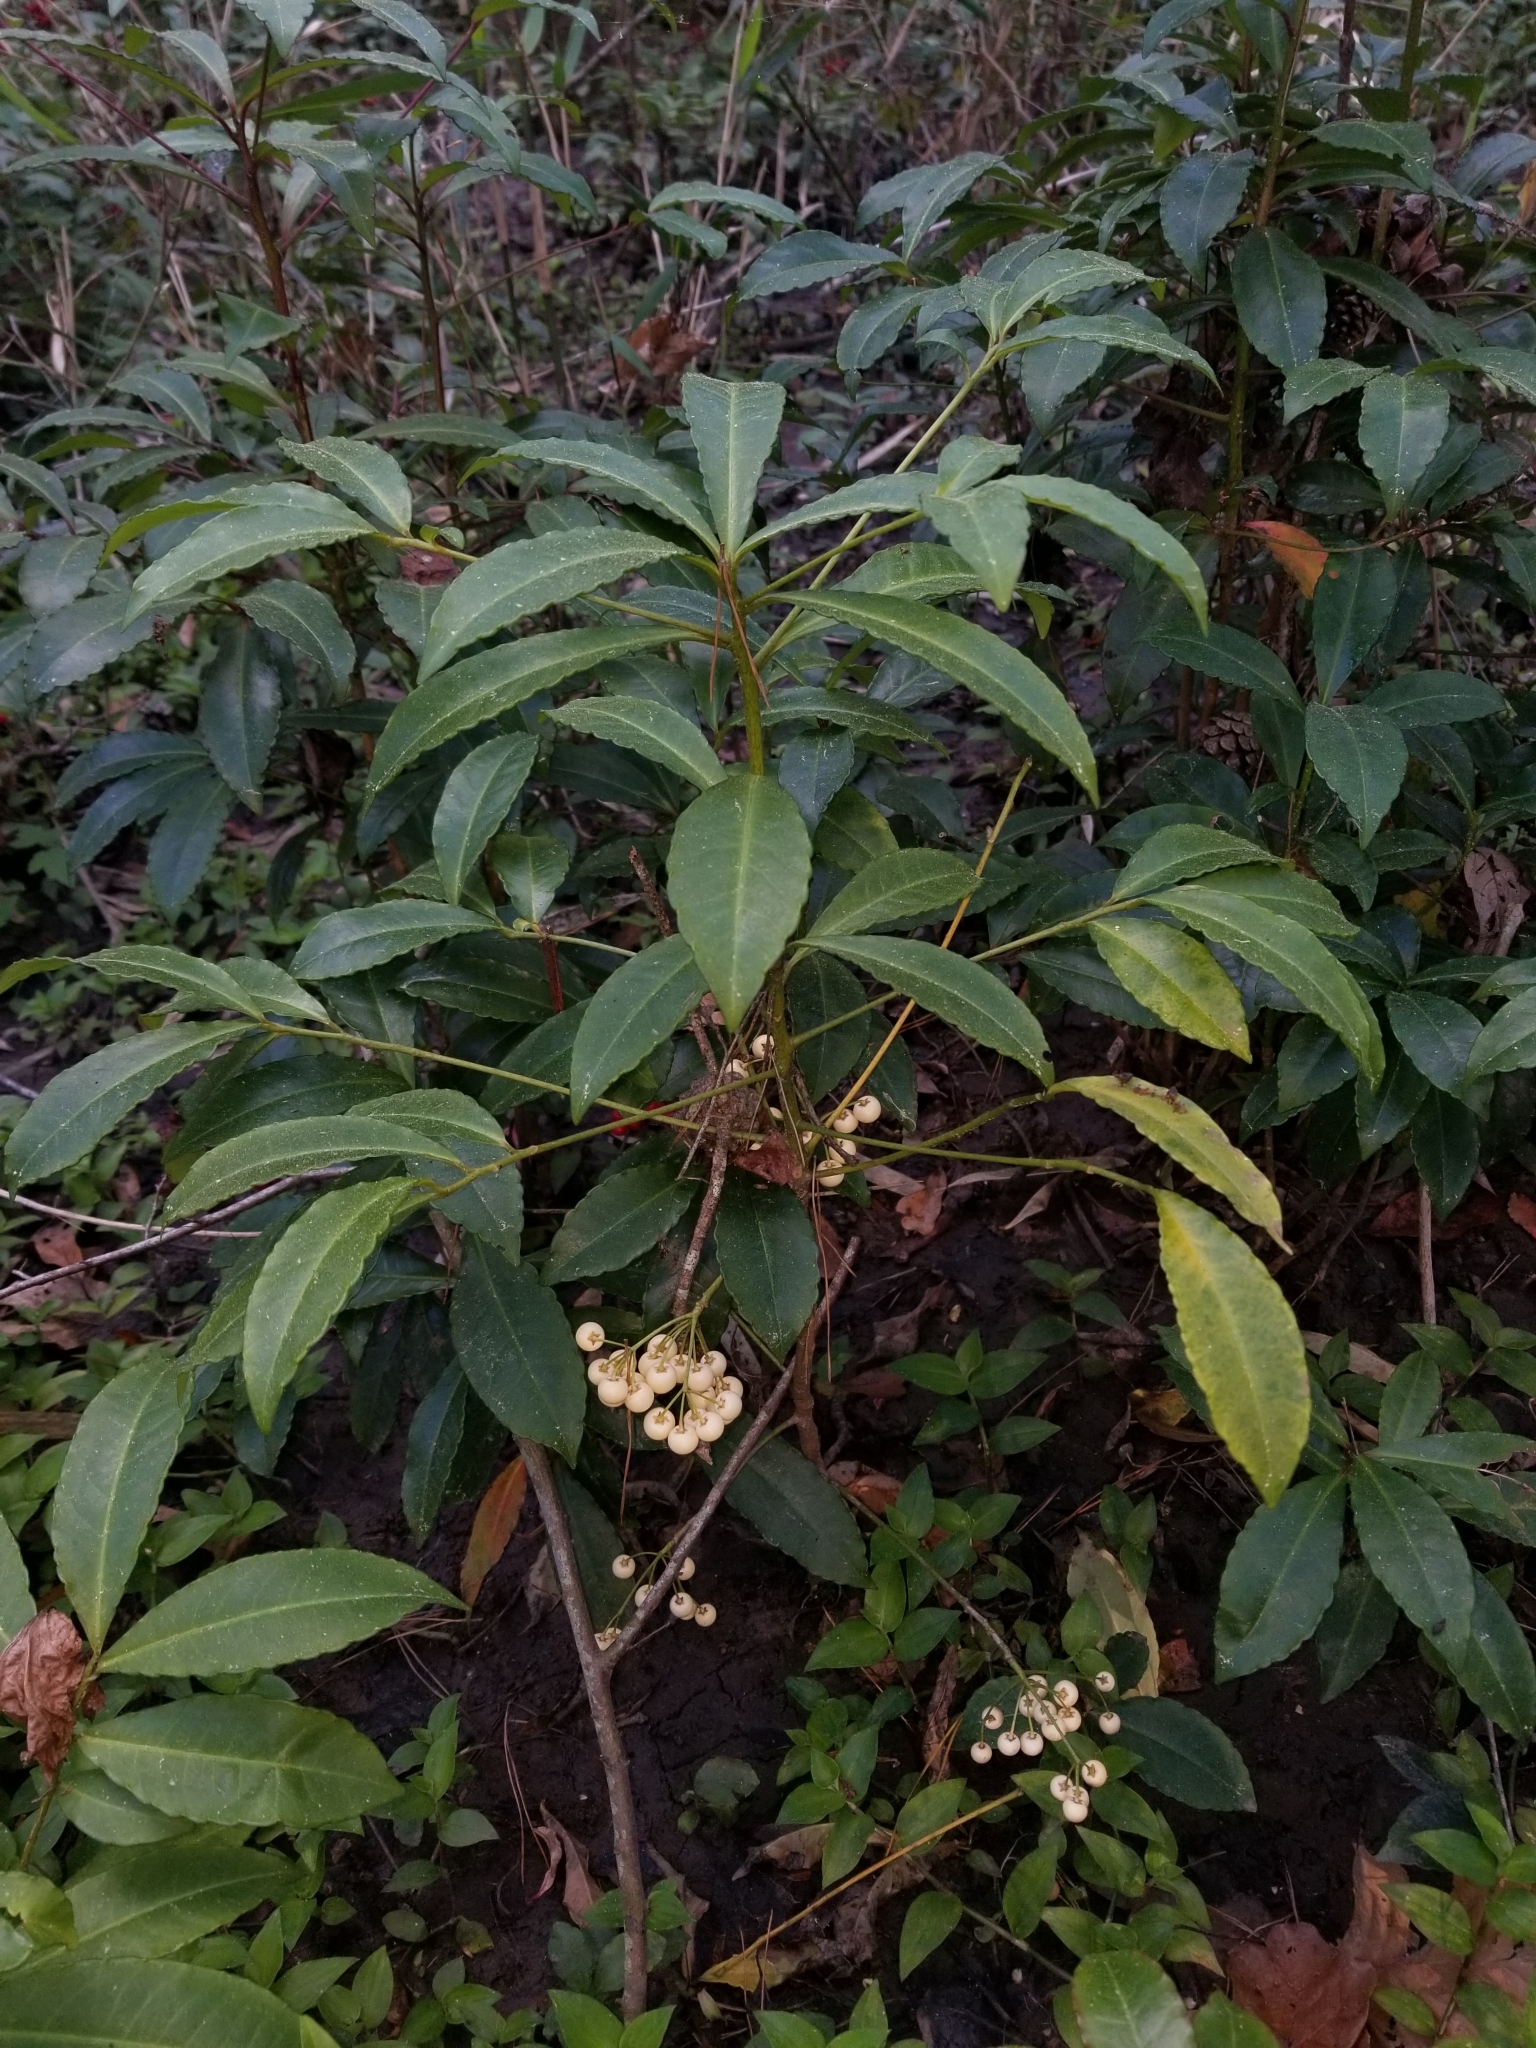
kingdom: Plantae
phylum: Tracheophyta
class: Magnoliopsida
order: Ericales
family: Primulaceae
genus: Ardisia
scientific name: Ardisia crenata
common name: Hen's eyes
